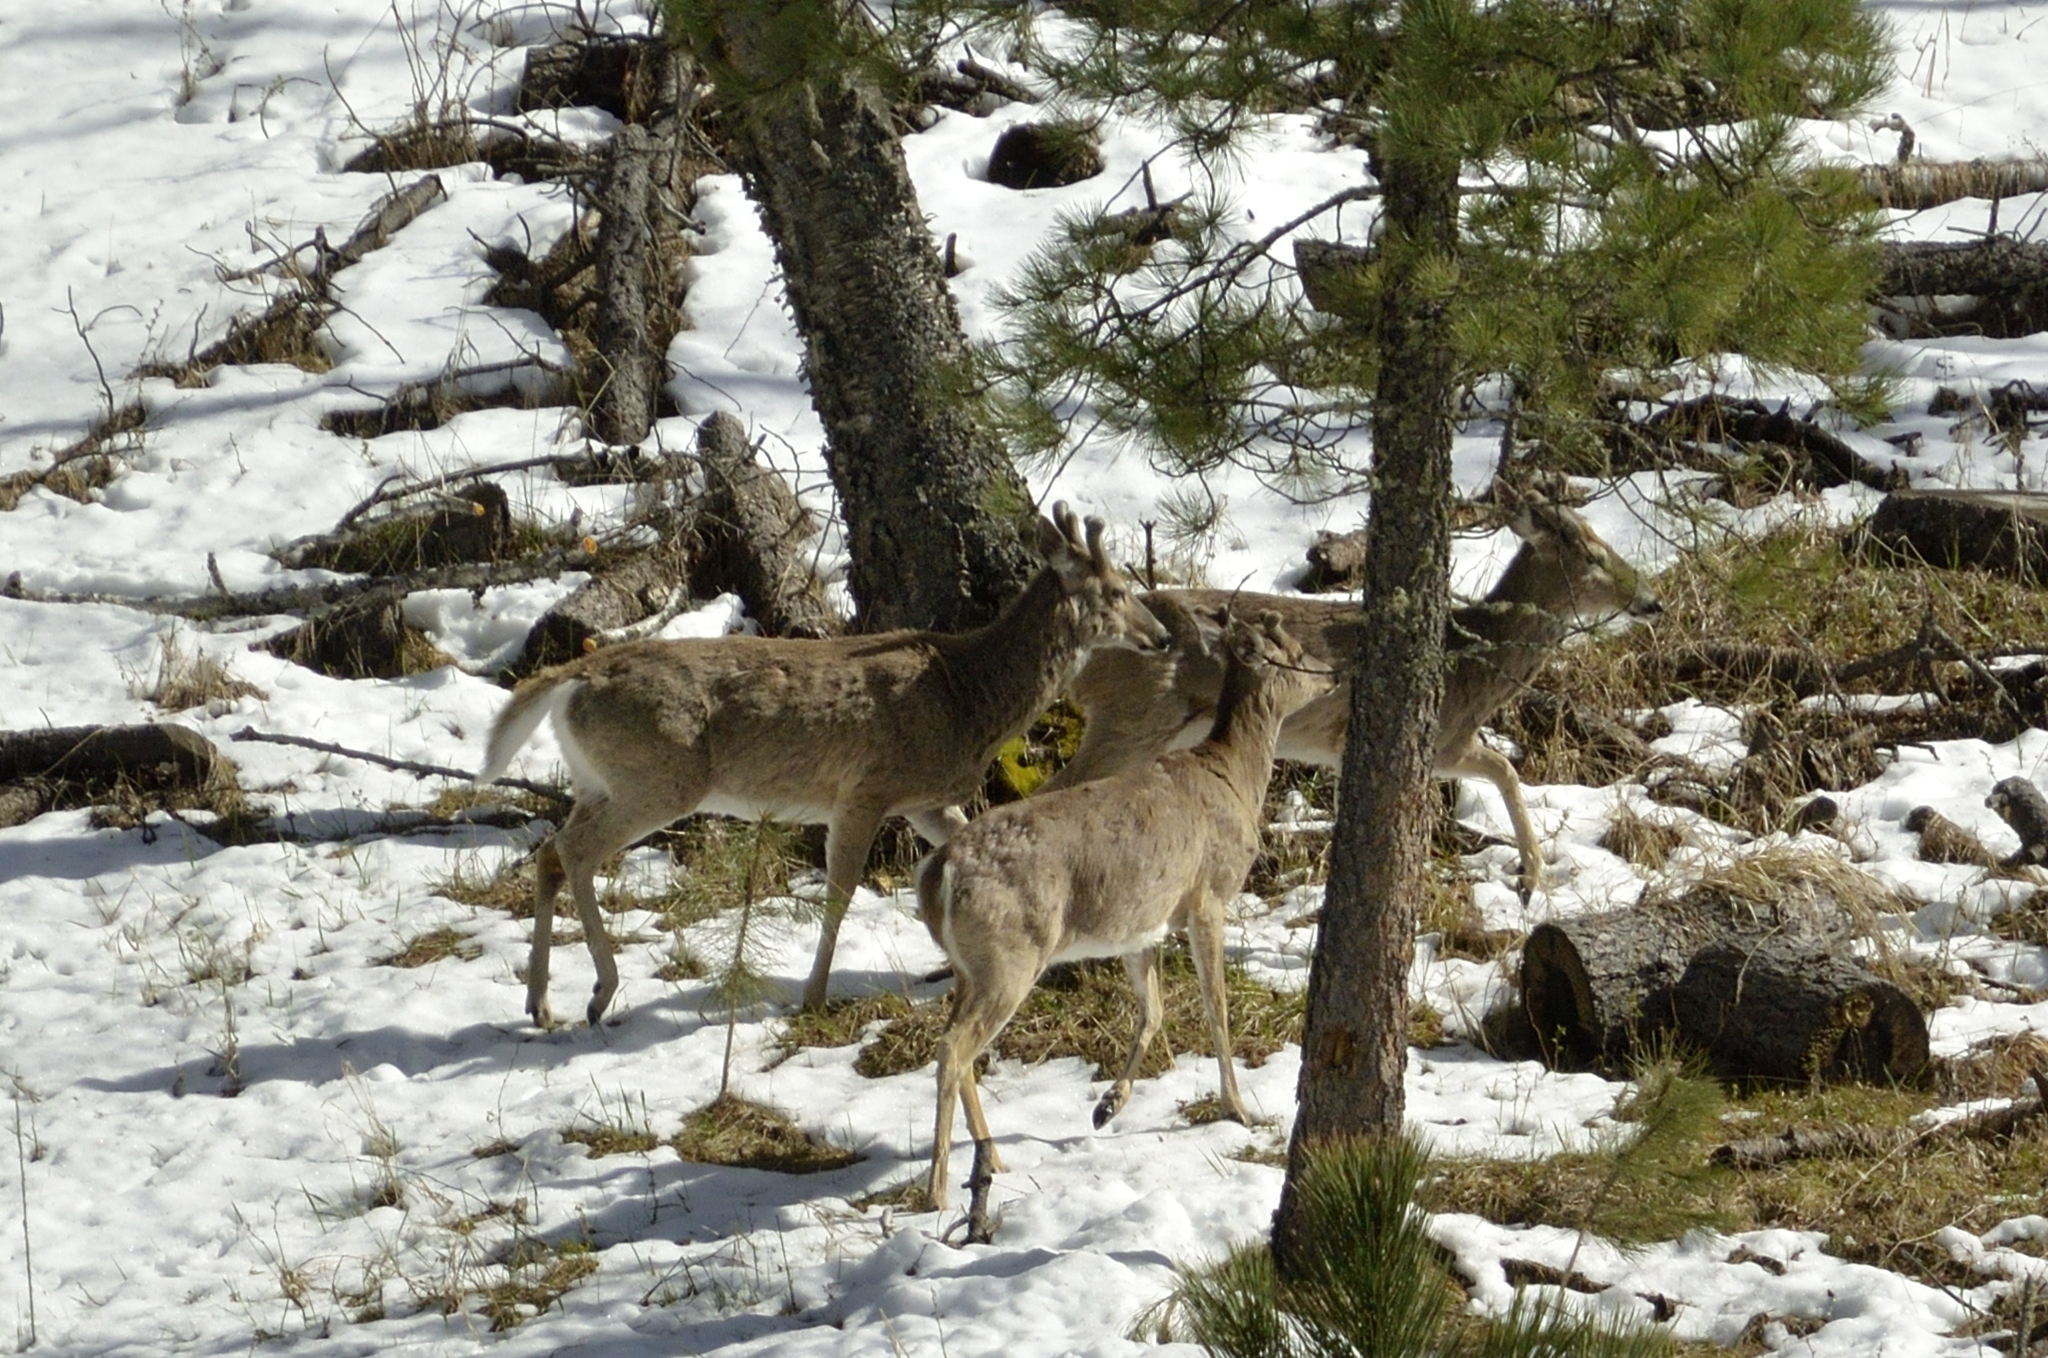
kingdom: Animalia
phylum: Chordata
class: Mammalia
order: Artiodactyla
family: Cervidae
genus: Odocoileus
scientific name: Odocoileus virginianus
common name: White-tailed deer
